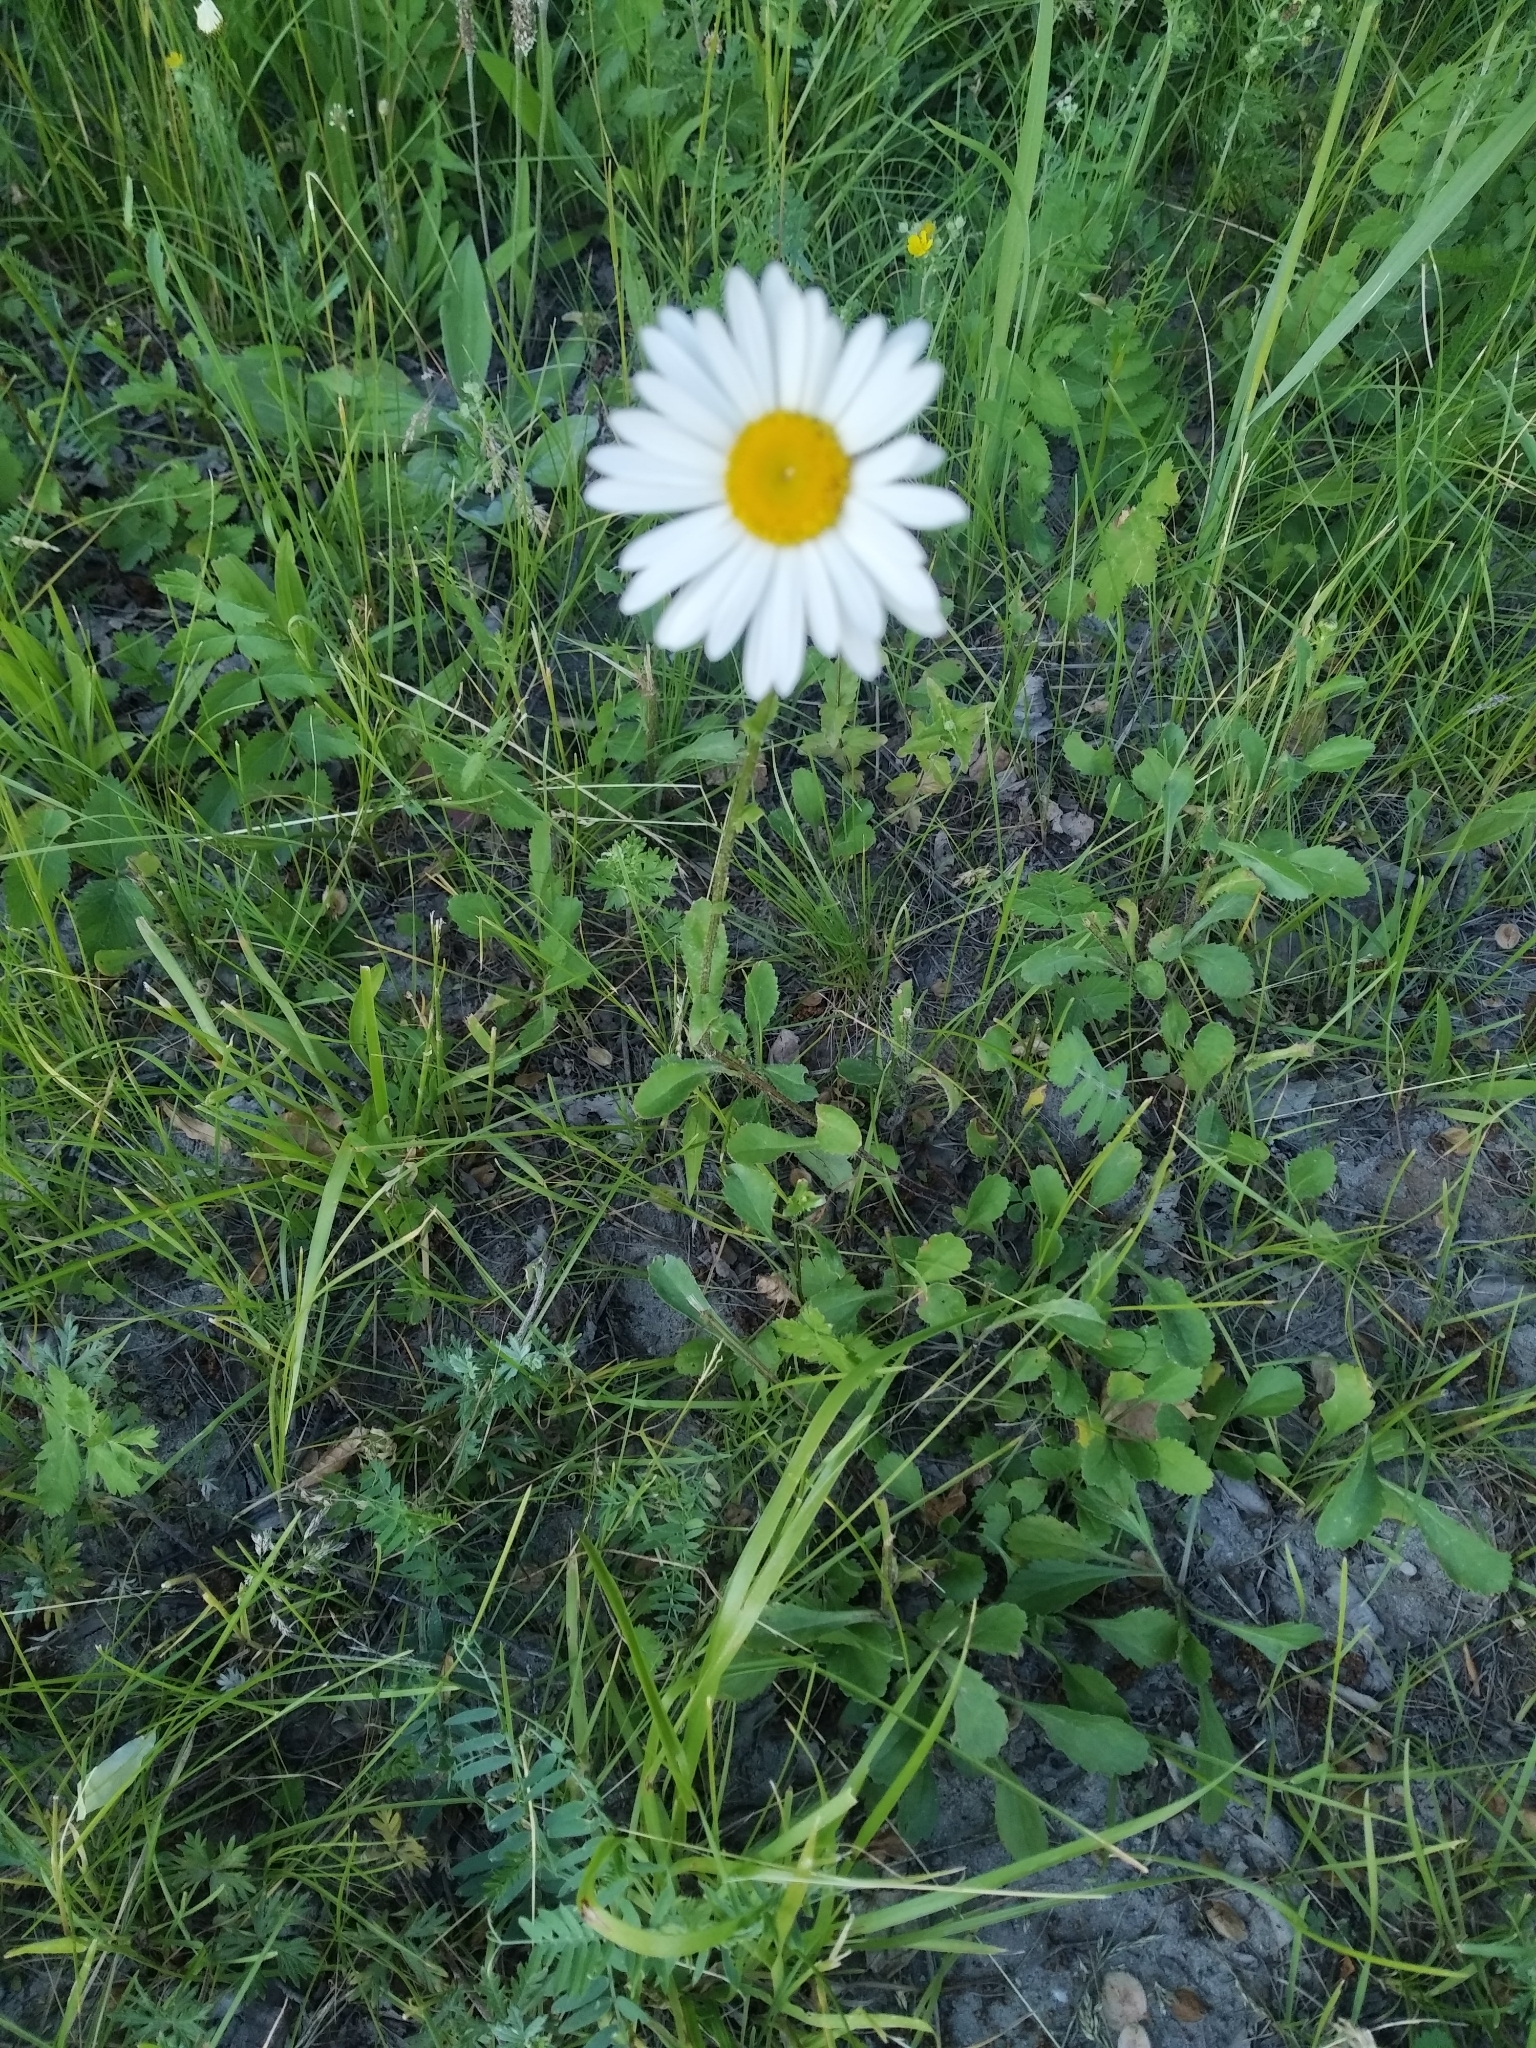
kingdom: Plantae
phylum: Tracheophyta
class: Magnoliopsida
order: Asterales
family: Asteraceae
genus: Leucanthemum
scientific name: Leucanthemum vulgare
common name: Oxeye daisy
